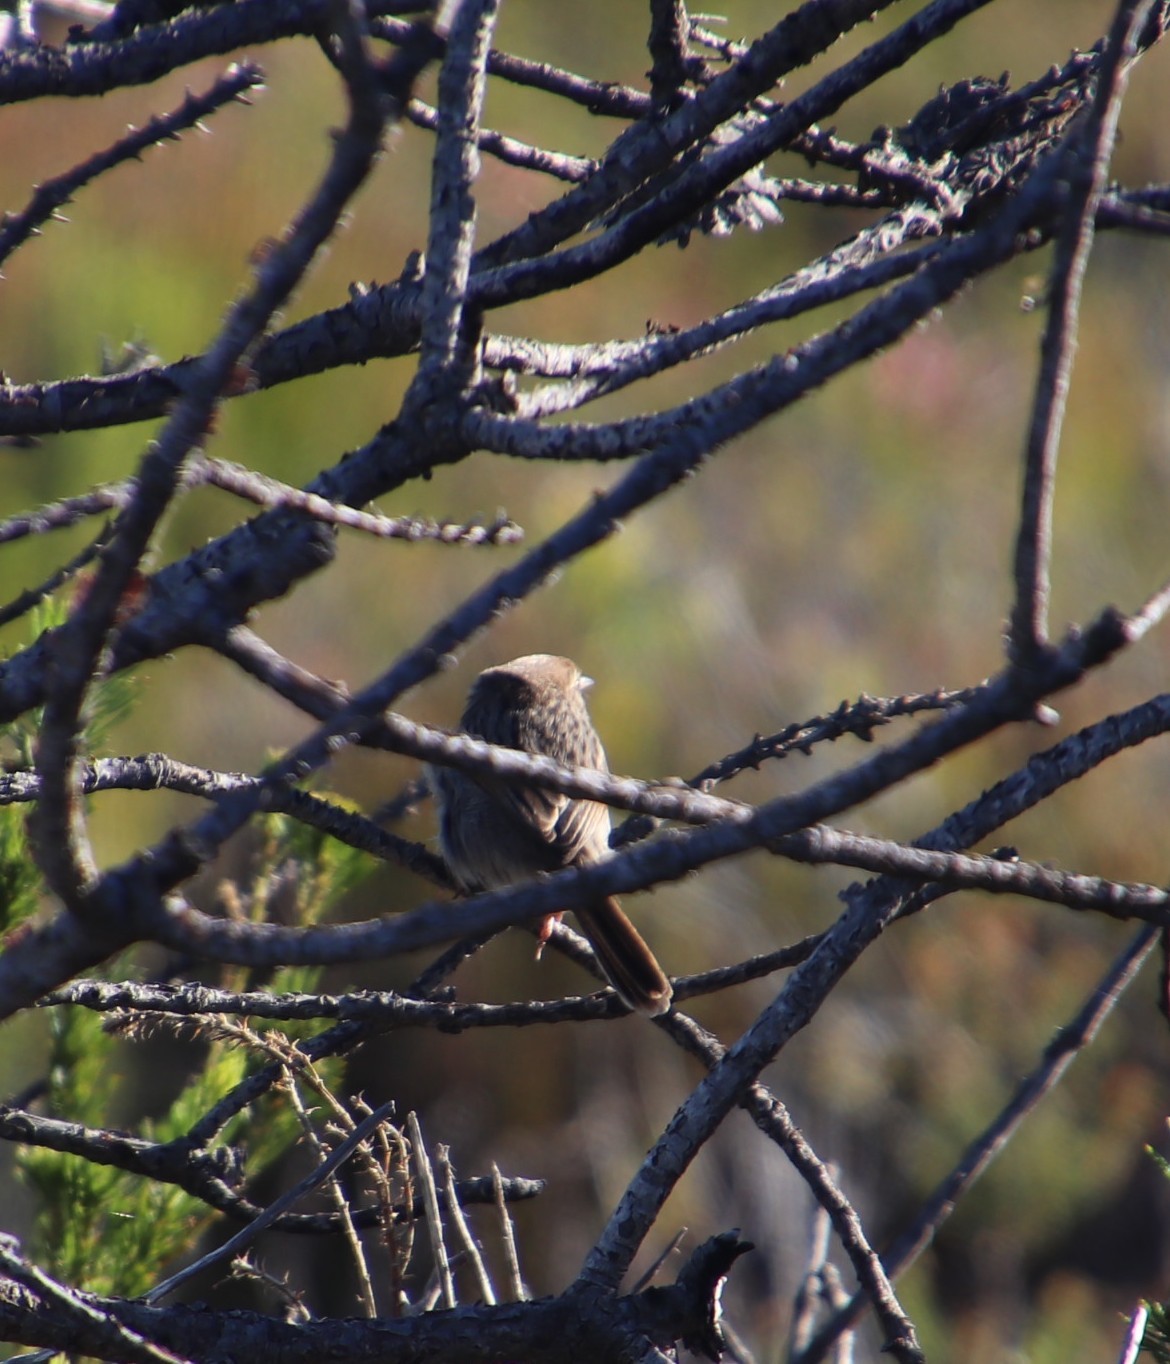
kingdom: Animalia
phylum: Chordata
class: Aves
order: Passeriformes
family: Cisticolidae
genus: Cisticola
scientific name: Cisticola subruficapilla
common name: Grey-backed cisticola
